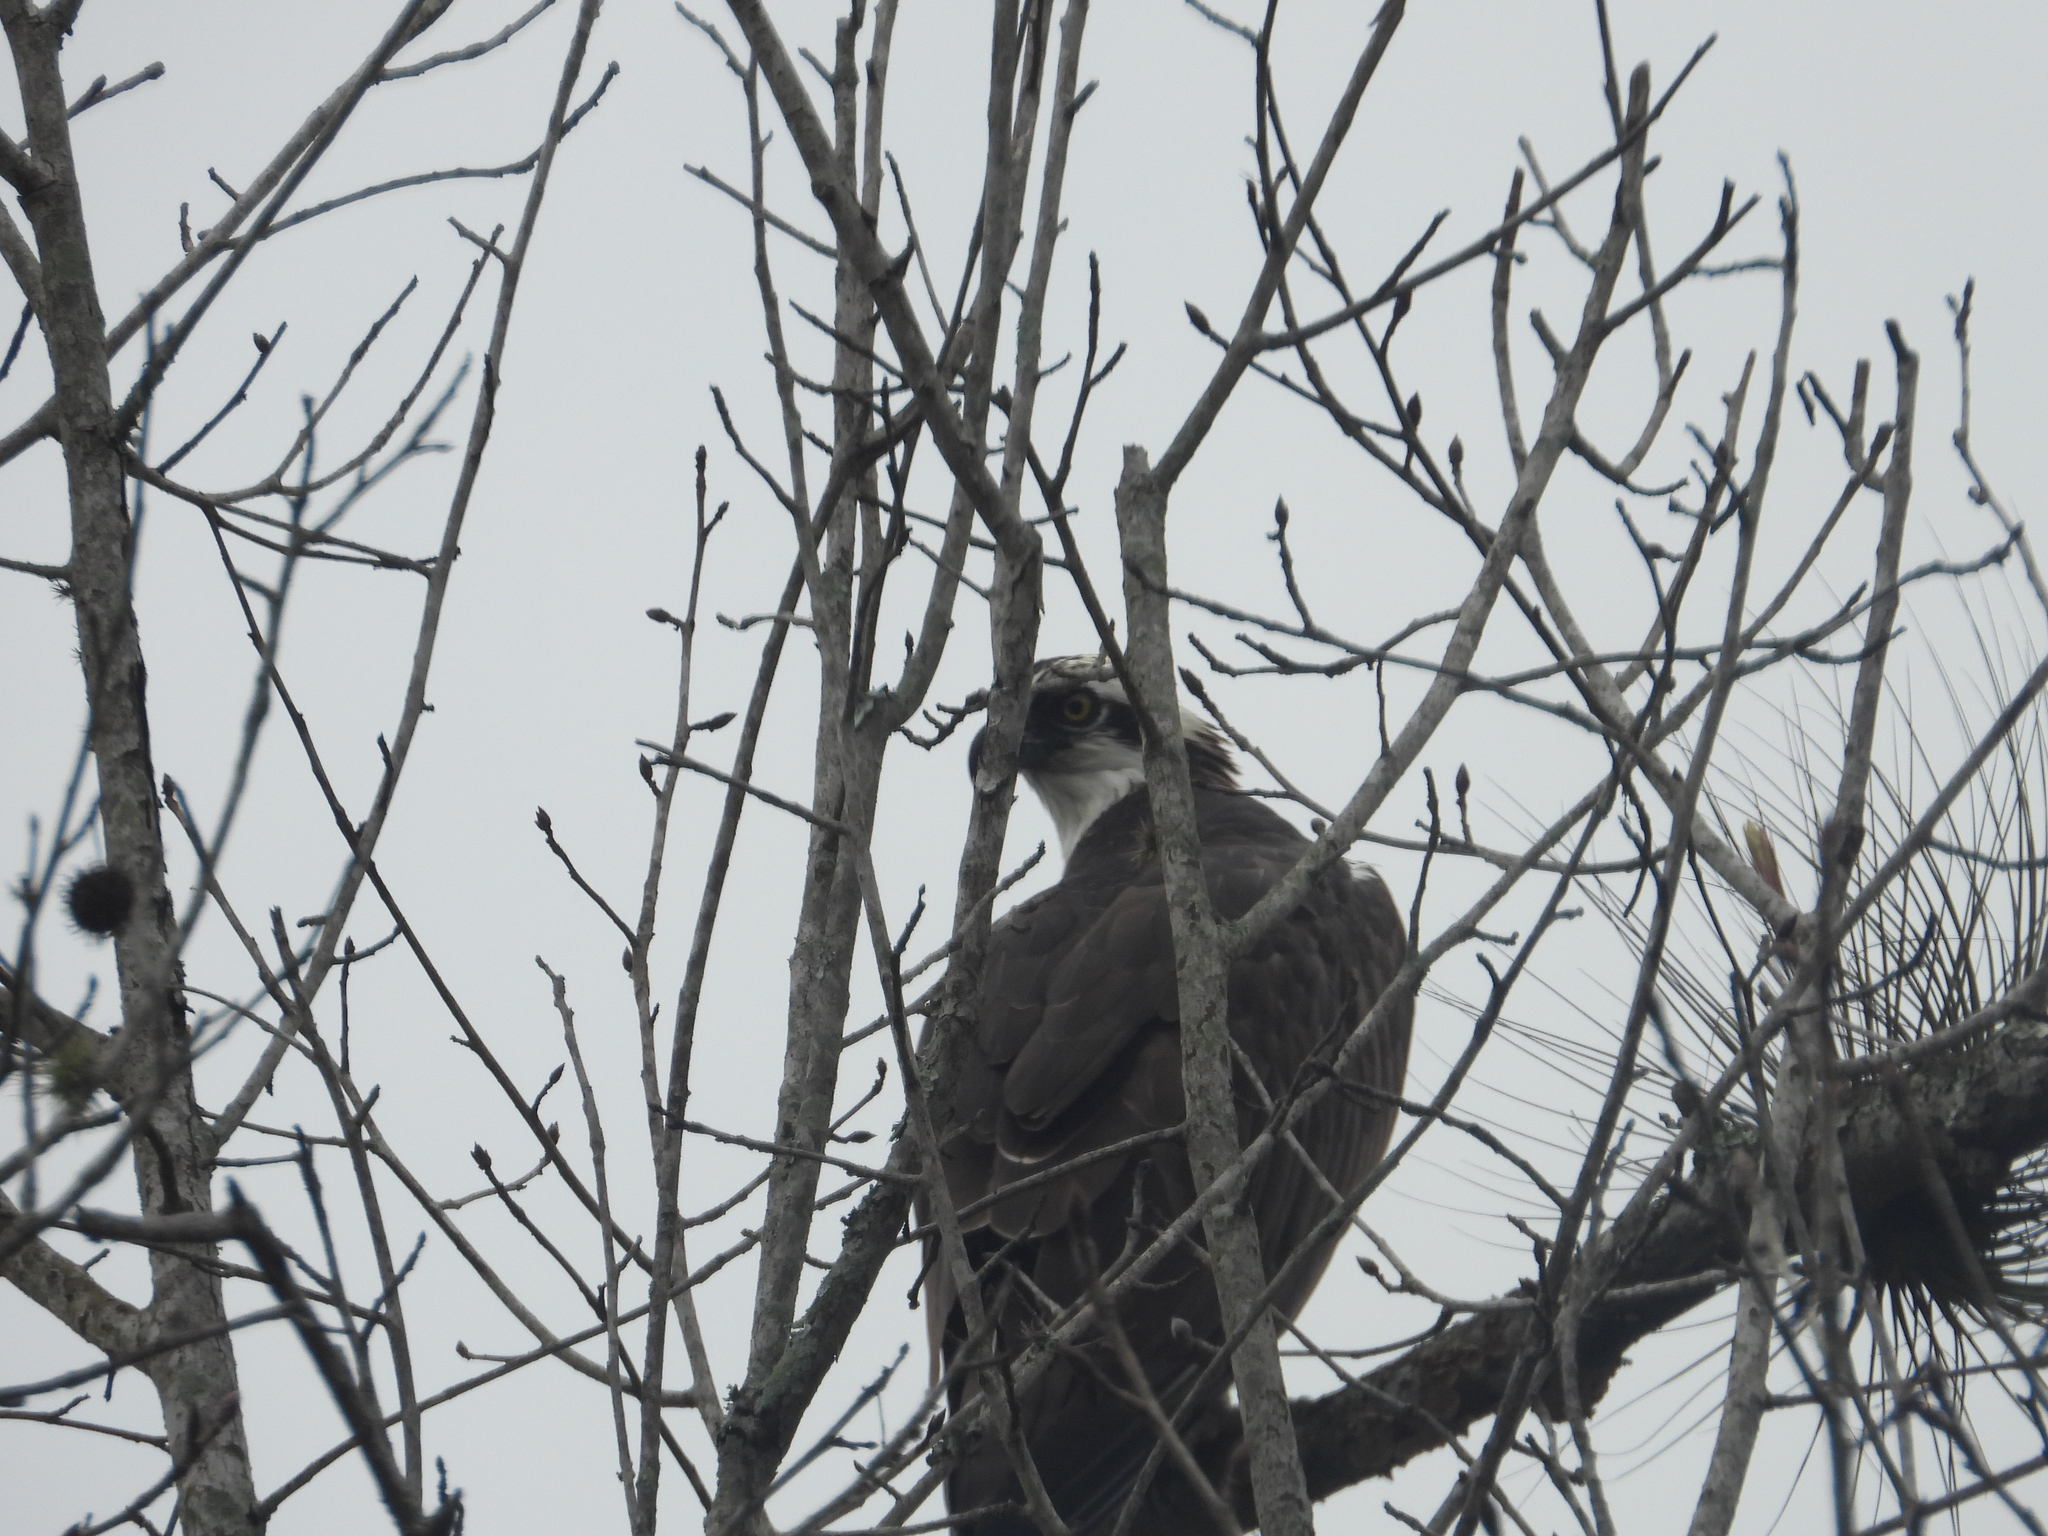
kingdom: Animalia
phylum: Chordata
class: Aves
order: Accipitriformes
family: Pandionidae
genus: Pandion
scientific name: Pandion haliaetus
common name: Osprey
